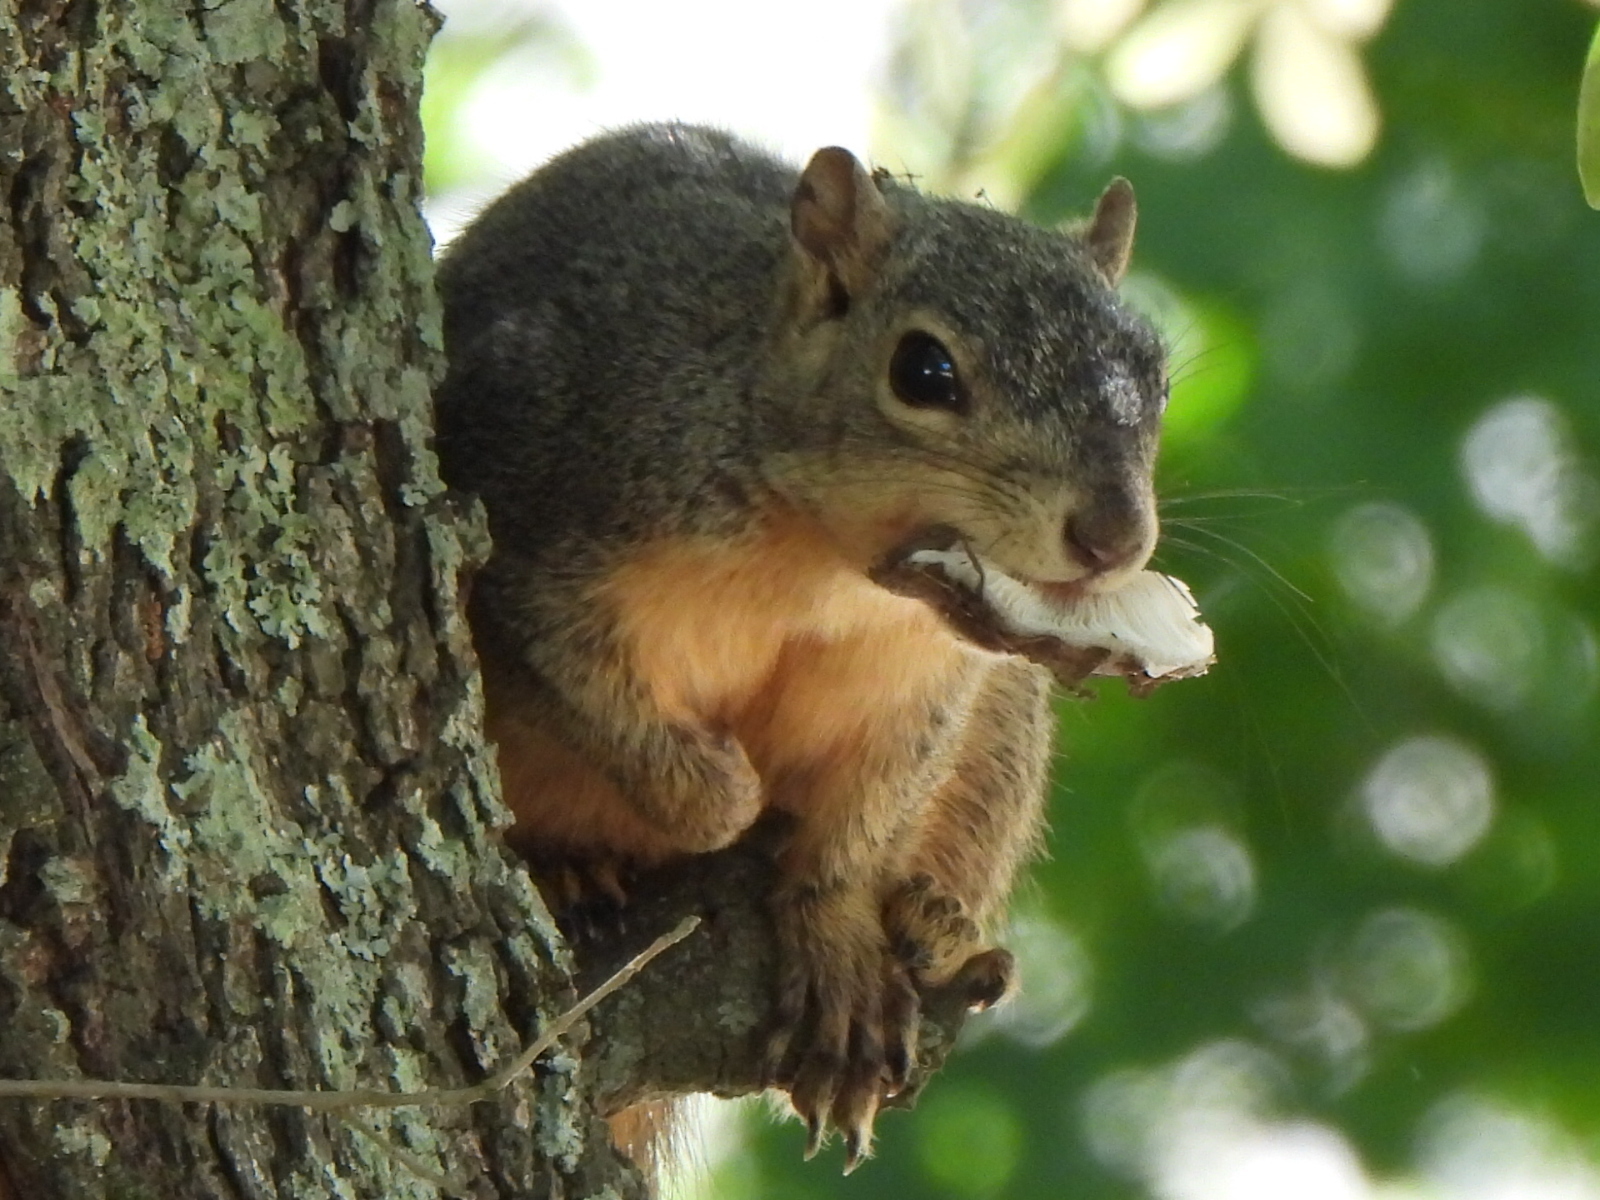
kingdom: Animalia
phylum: Chordata
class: Mammalia
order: Rodentia
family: Sciuridae
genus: Sciurus
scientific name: Sciurus niger
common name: Fox squirrel
